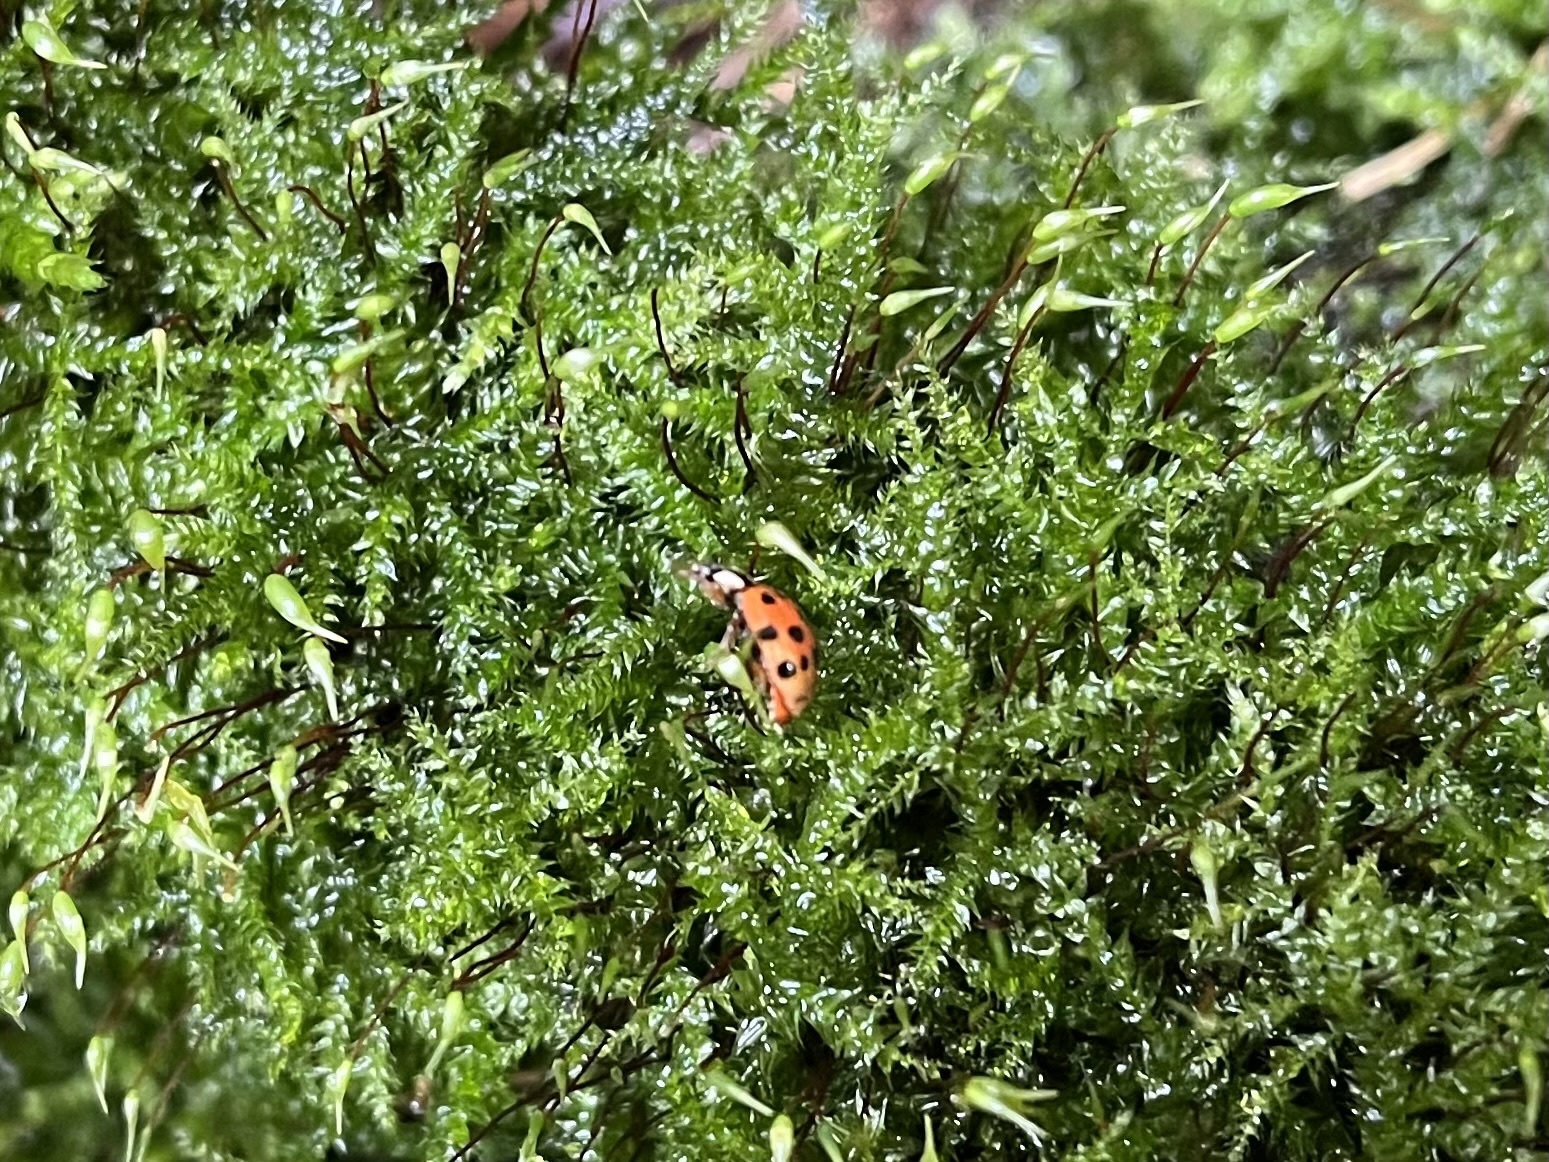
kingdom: Animalia
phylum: Arthropoda
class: Insecta
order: Coleoptera
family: Coccinellidae
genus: Harmonia
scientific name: Harmonia axyridis
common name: Harlequin ladybird
